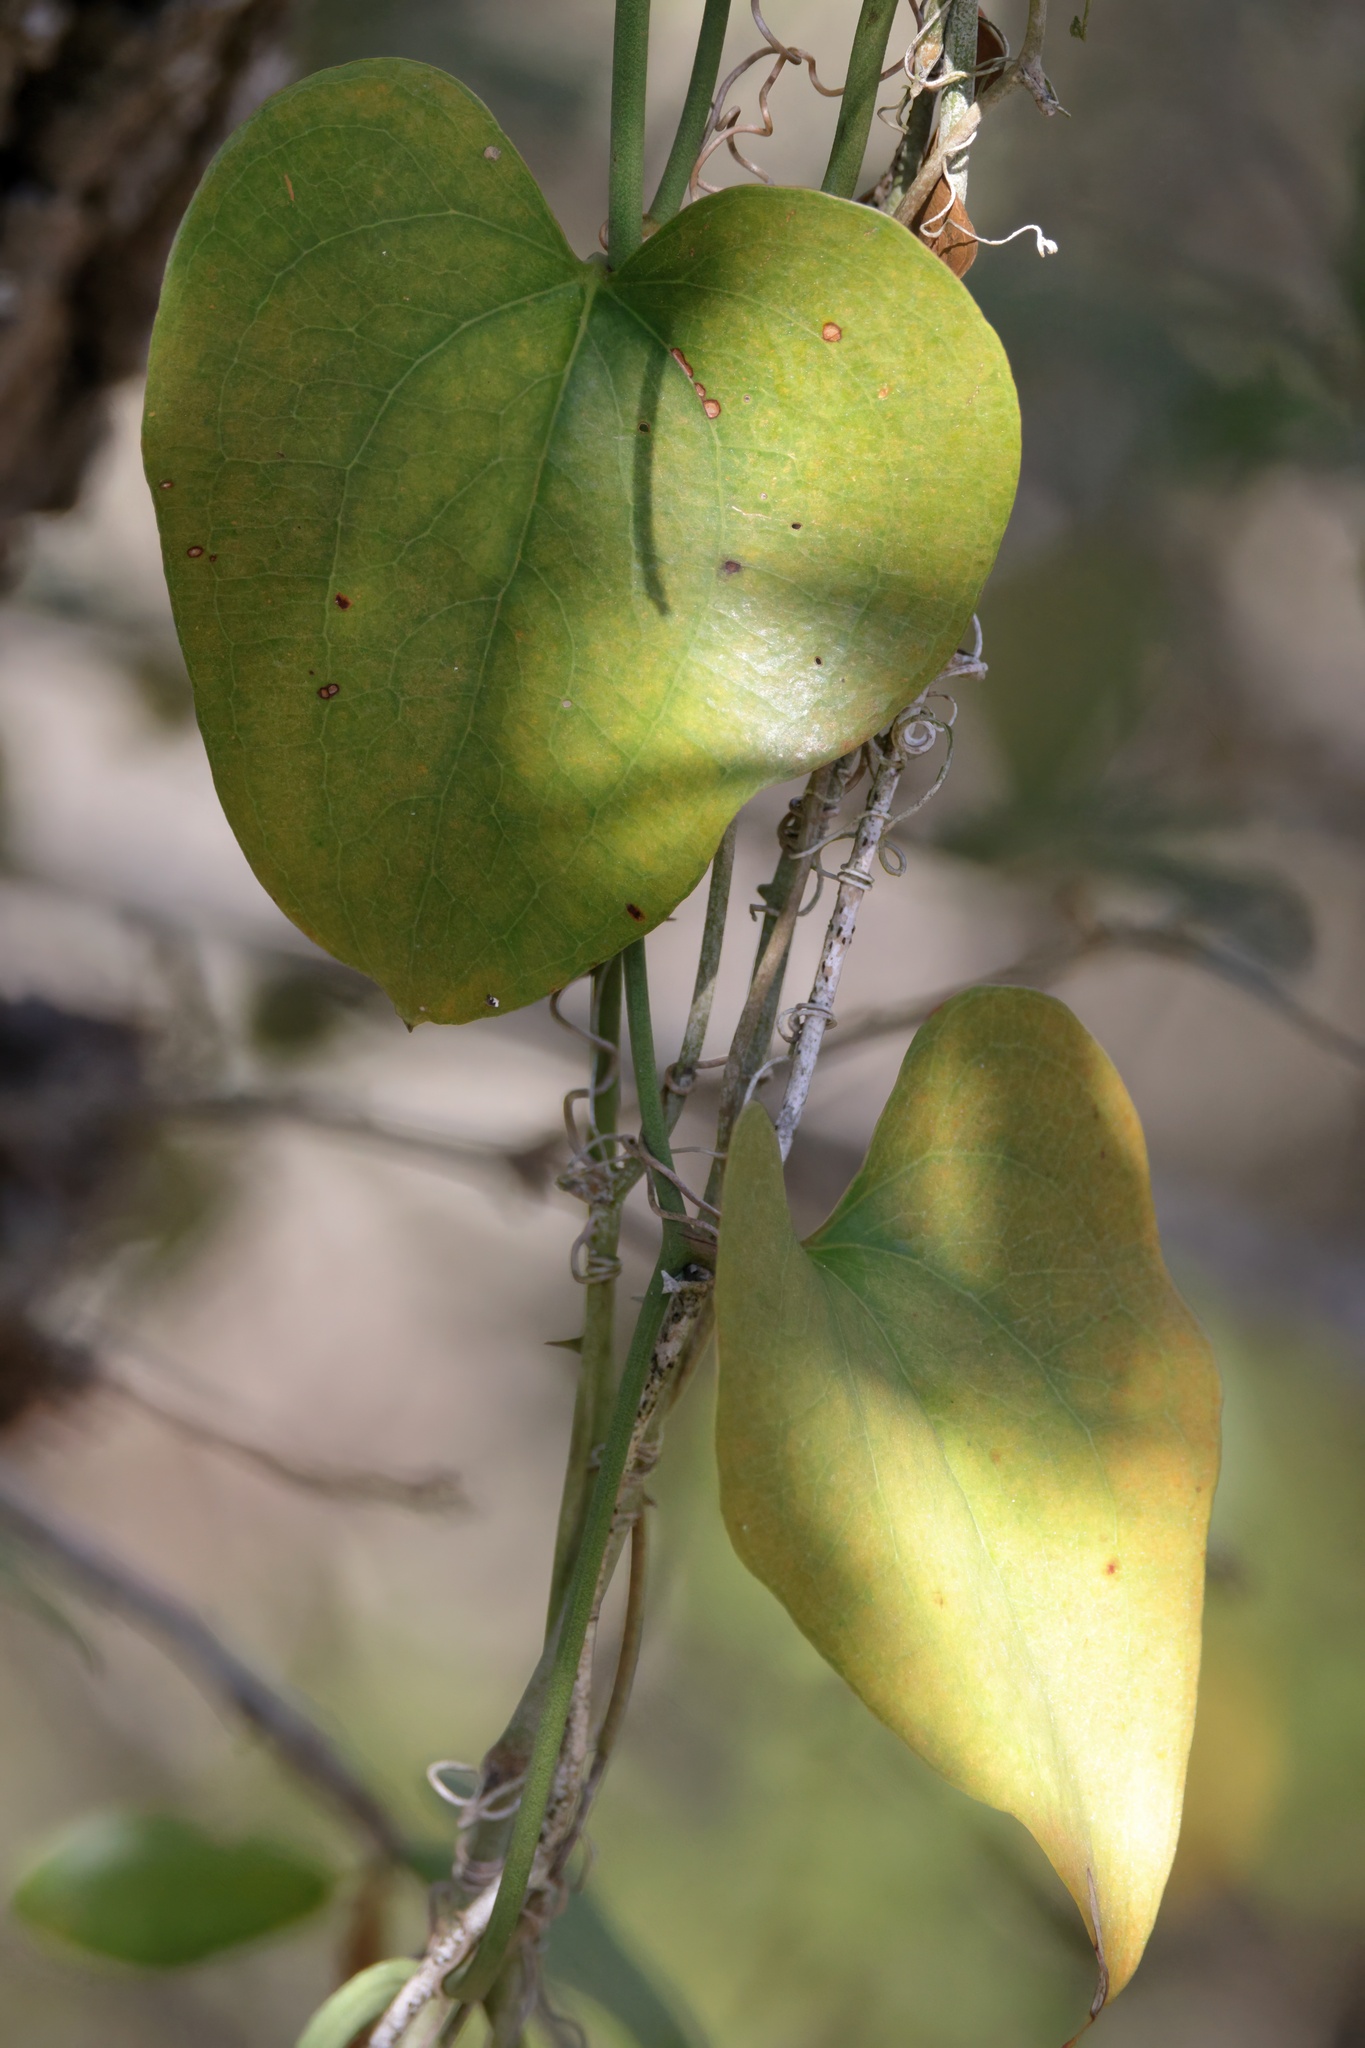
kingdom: Plantae
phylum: Tracheophyta
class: Liliopsida
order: Liliales
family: Smilacaceae
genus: Smilax
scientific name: Smilax bona-nox
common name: Catbrier
